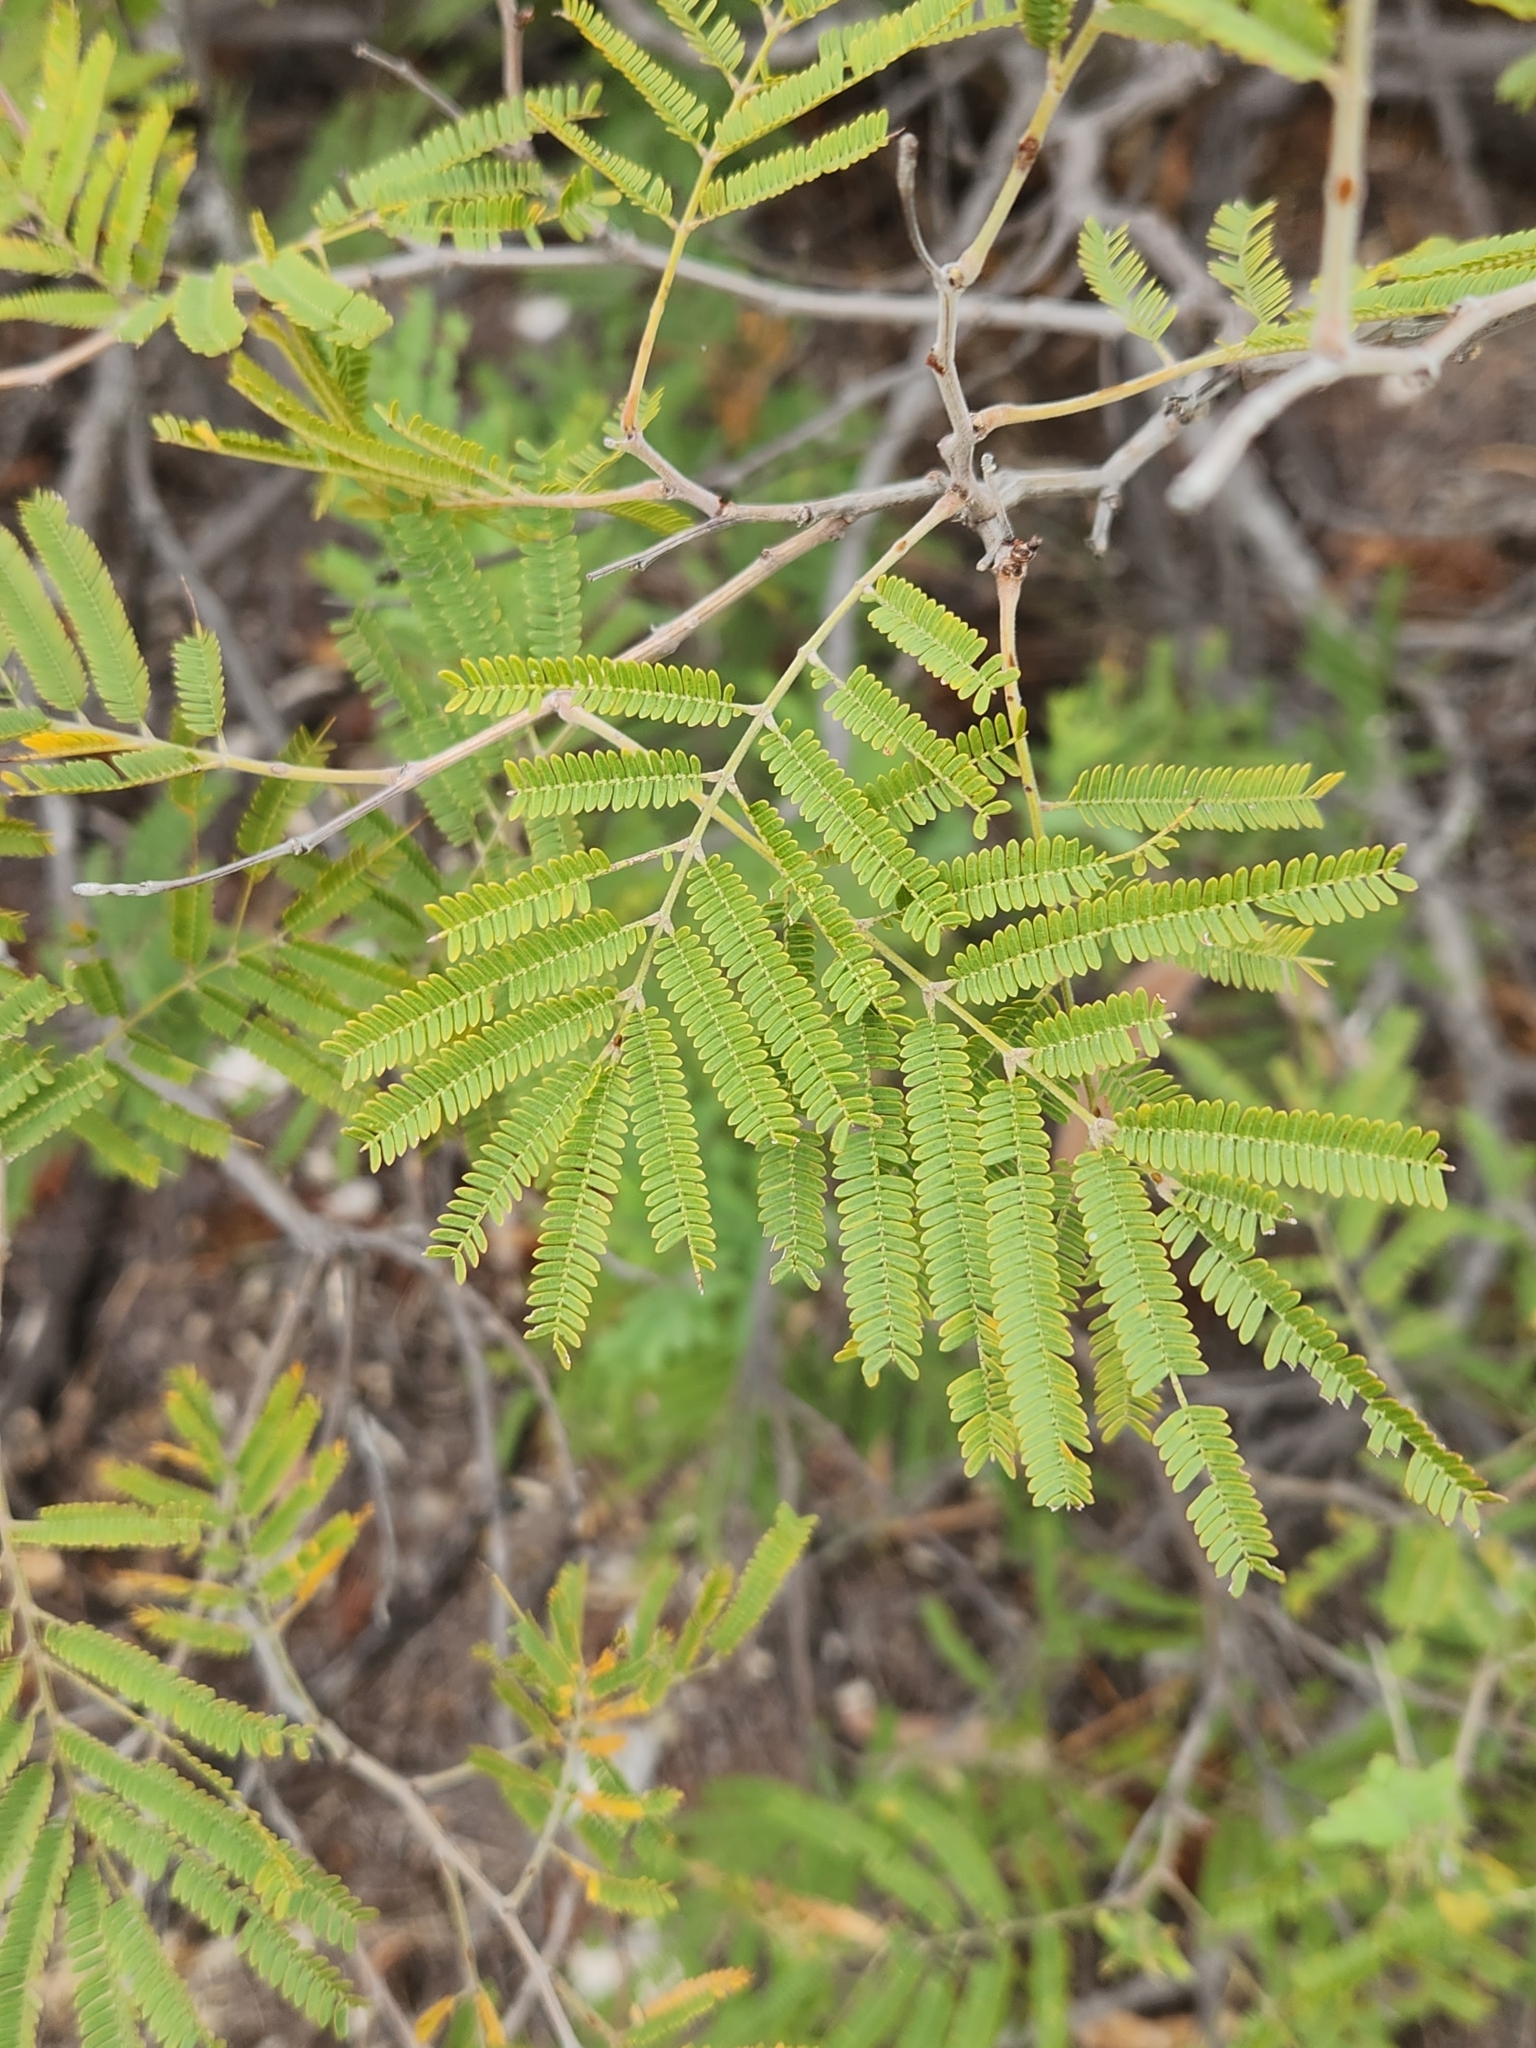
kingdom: Plantae
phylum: Tracheophyta
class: Magnoliopsida
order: Fabales
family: Fabaceae
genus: Senegalia
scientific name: Senegalia berlandieri
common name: Berlandier acacia
